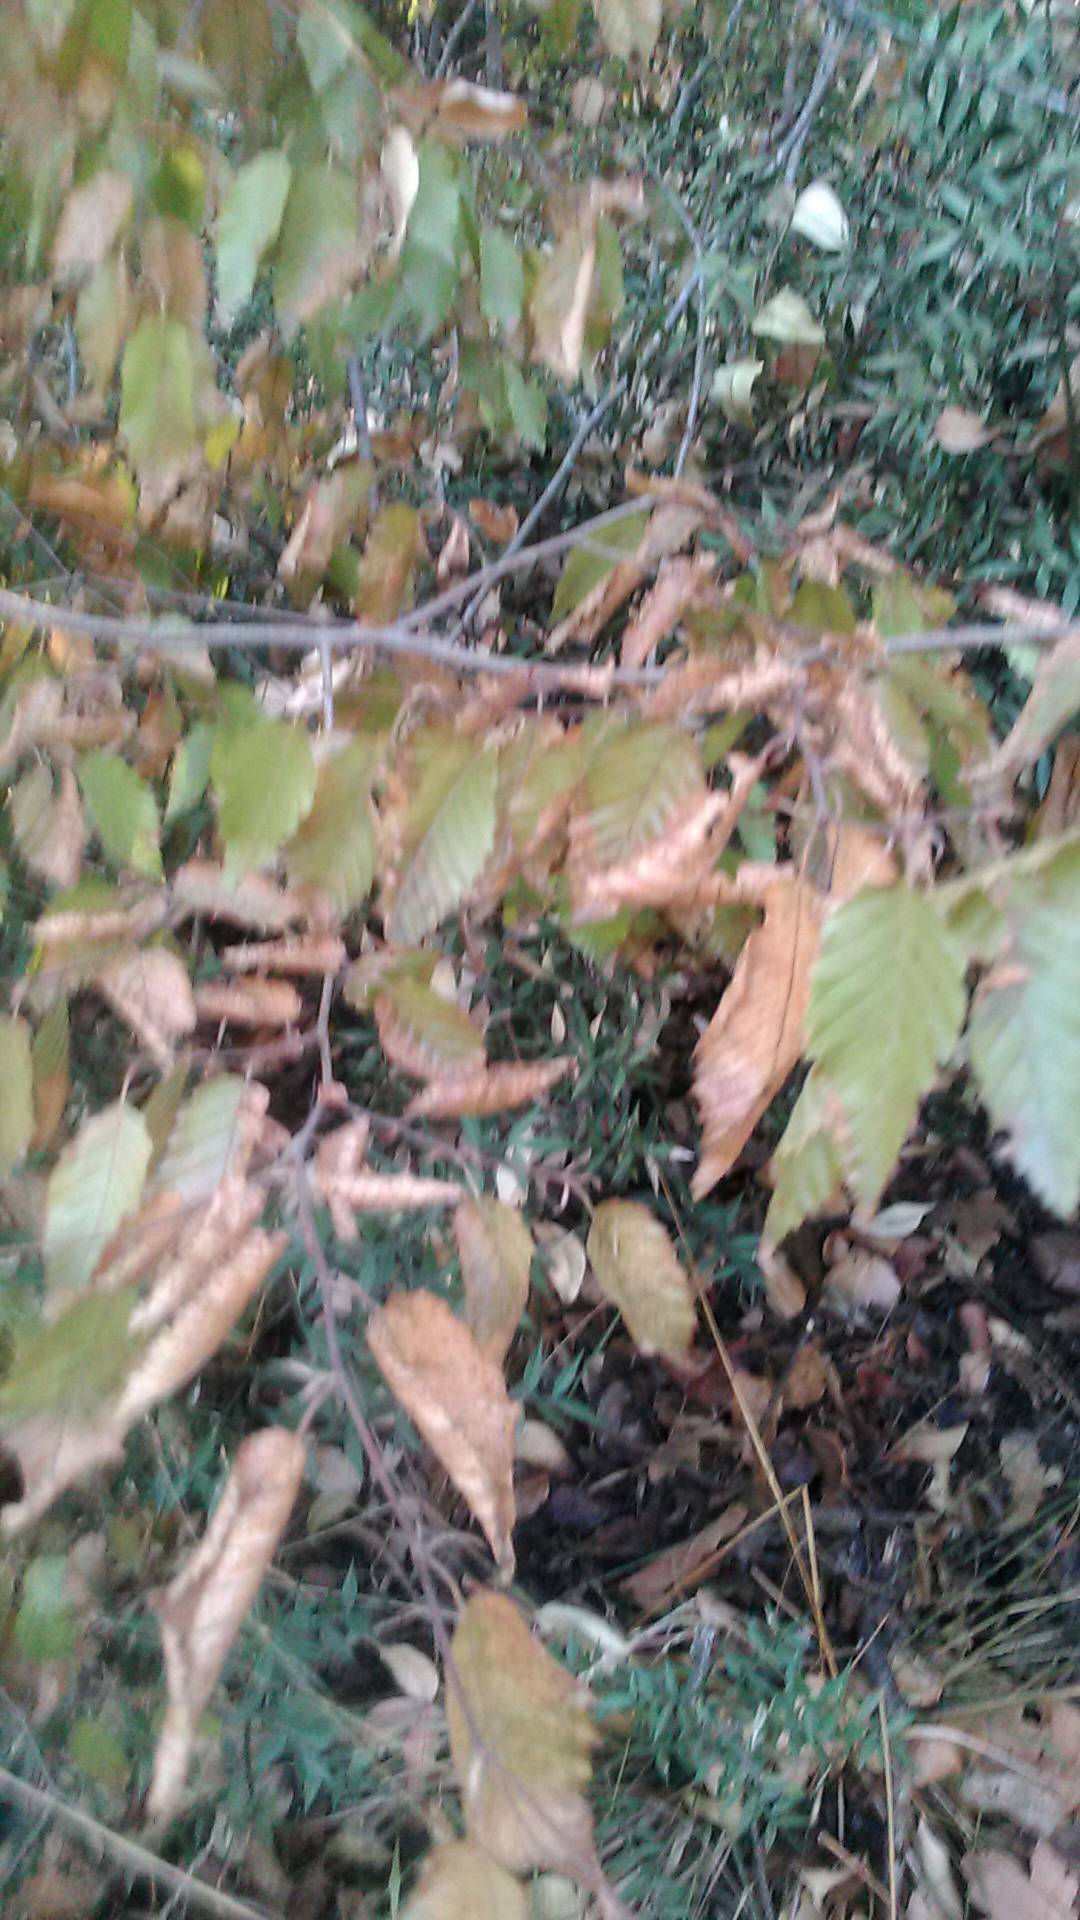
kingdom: Plantae
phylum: Tracheophyta
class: Magnoliopsida
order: Fagales
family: Betulaceae
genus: Carpinus
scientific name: Carpinus orientalis
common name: Eastern hornbeam
